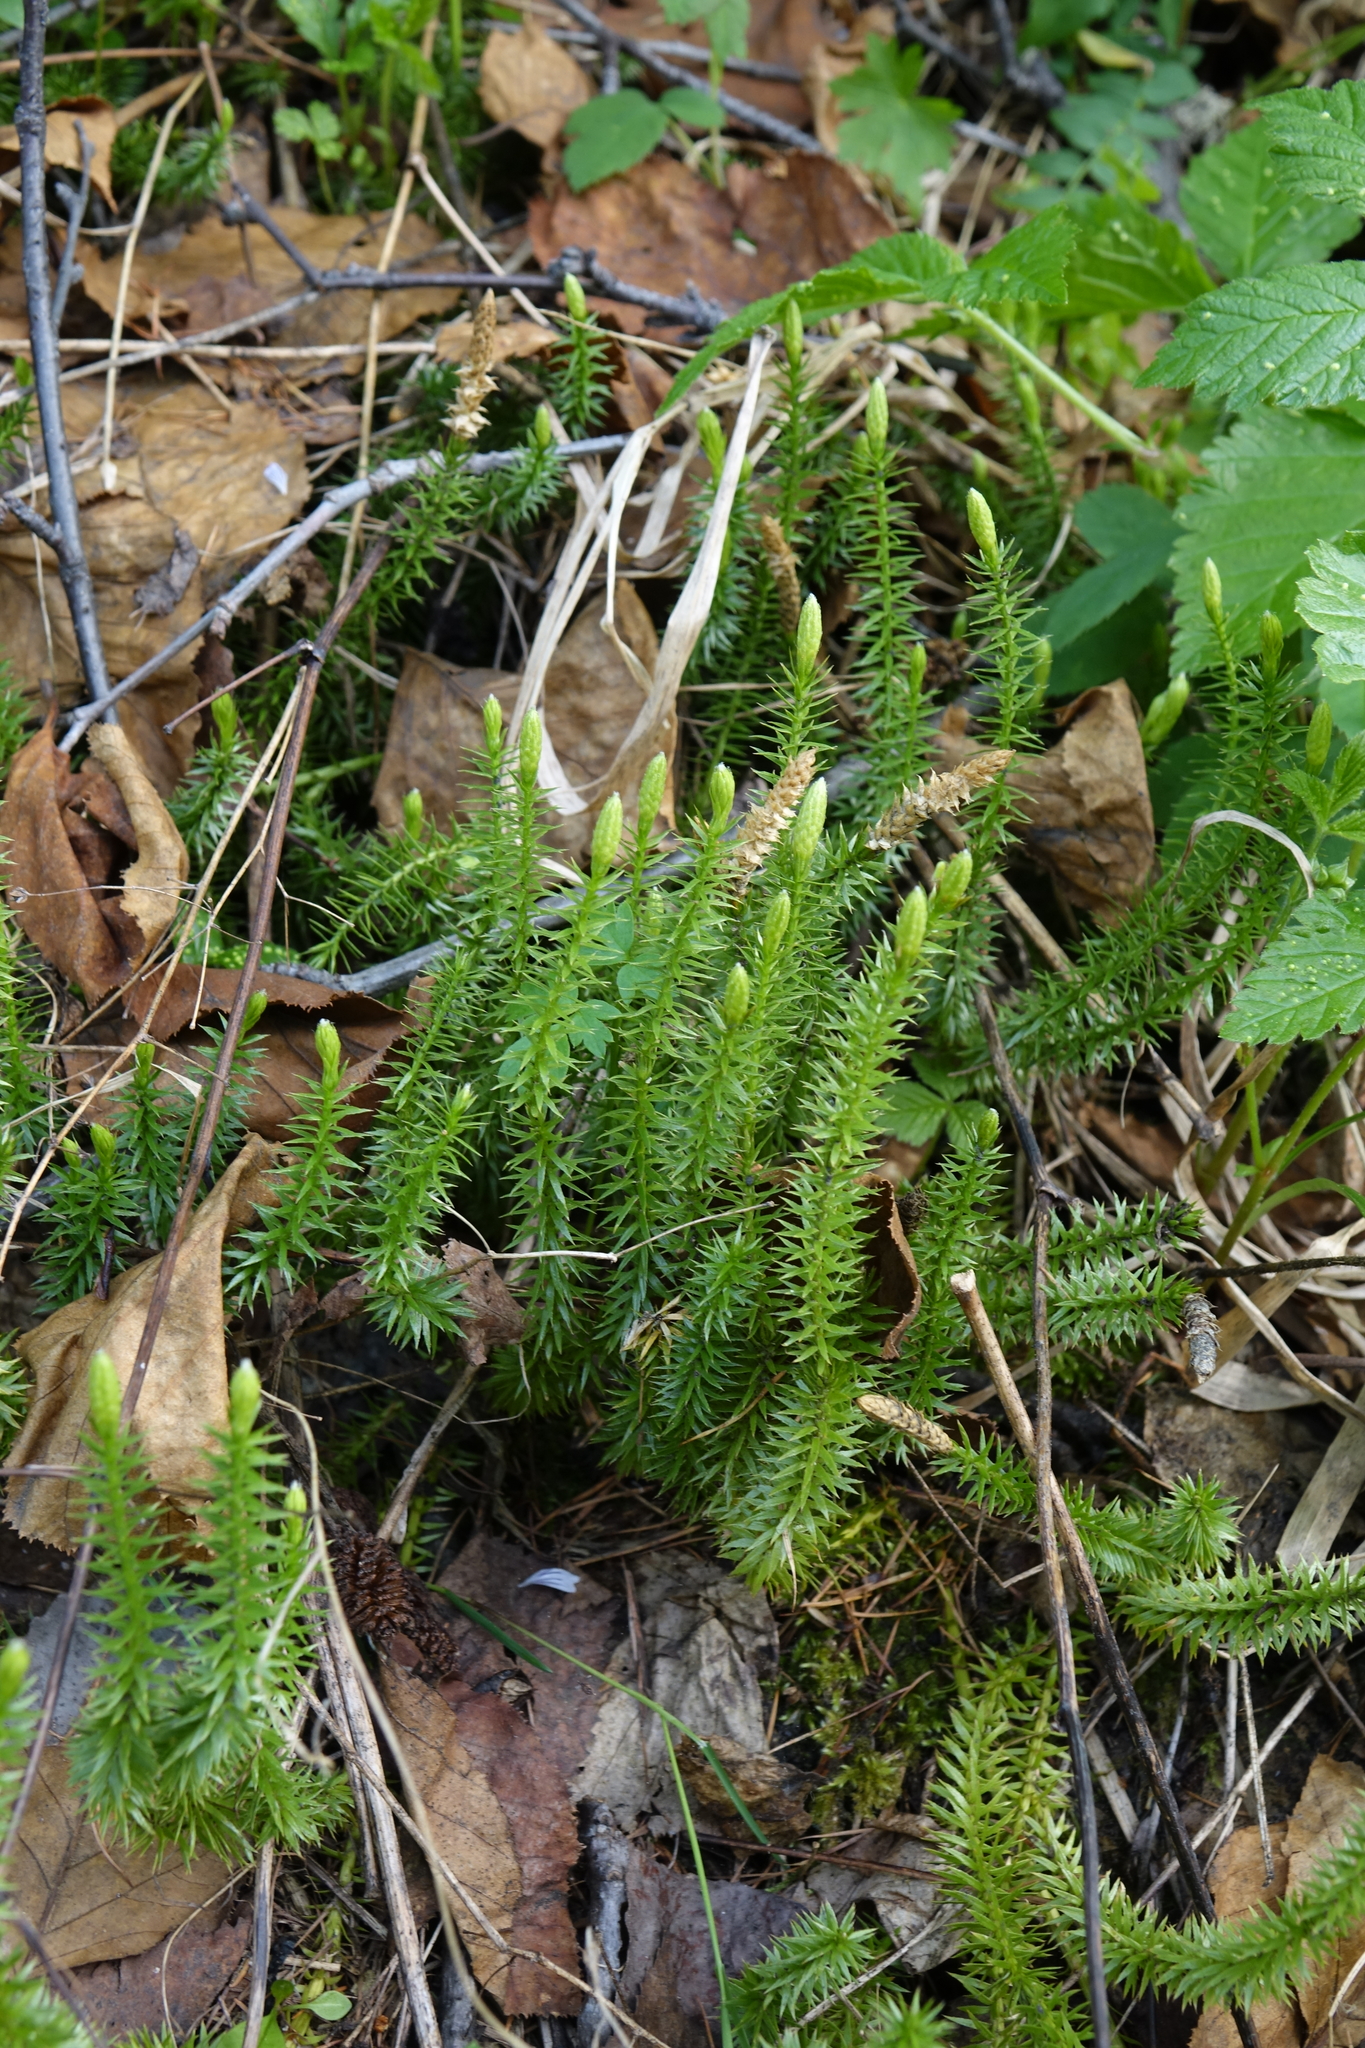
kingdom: Plantae
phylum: Tracheophyta
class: Lycopodiopsida
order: Lycopodiales
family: Lycopodiaceae
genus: Spinulum
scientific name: Spinulum annotinum
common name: Interrupted club-moss
